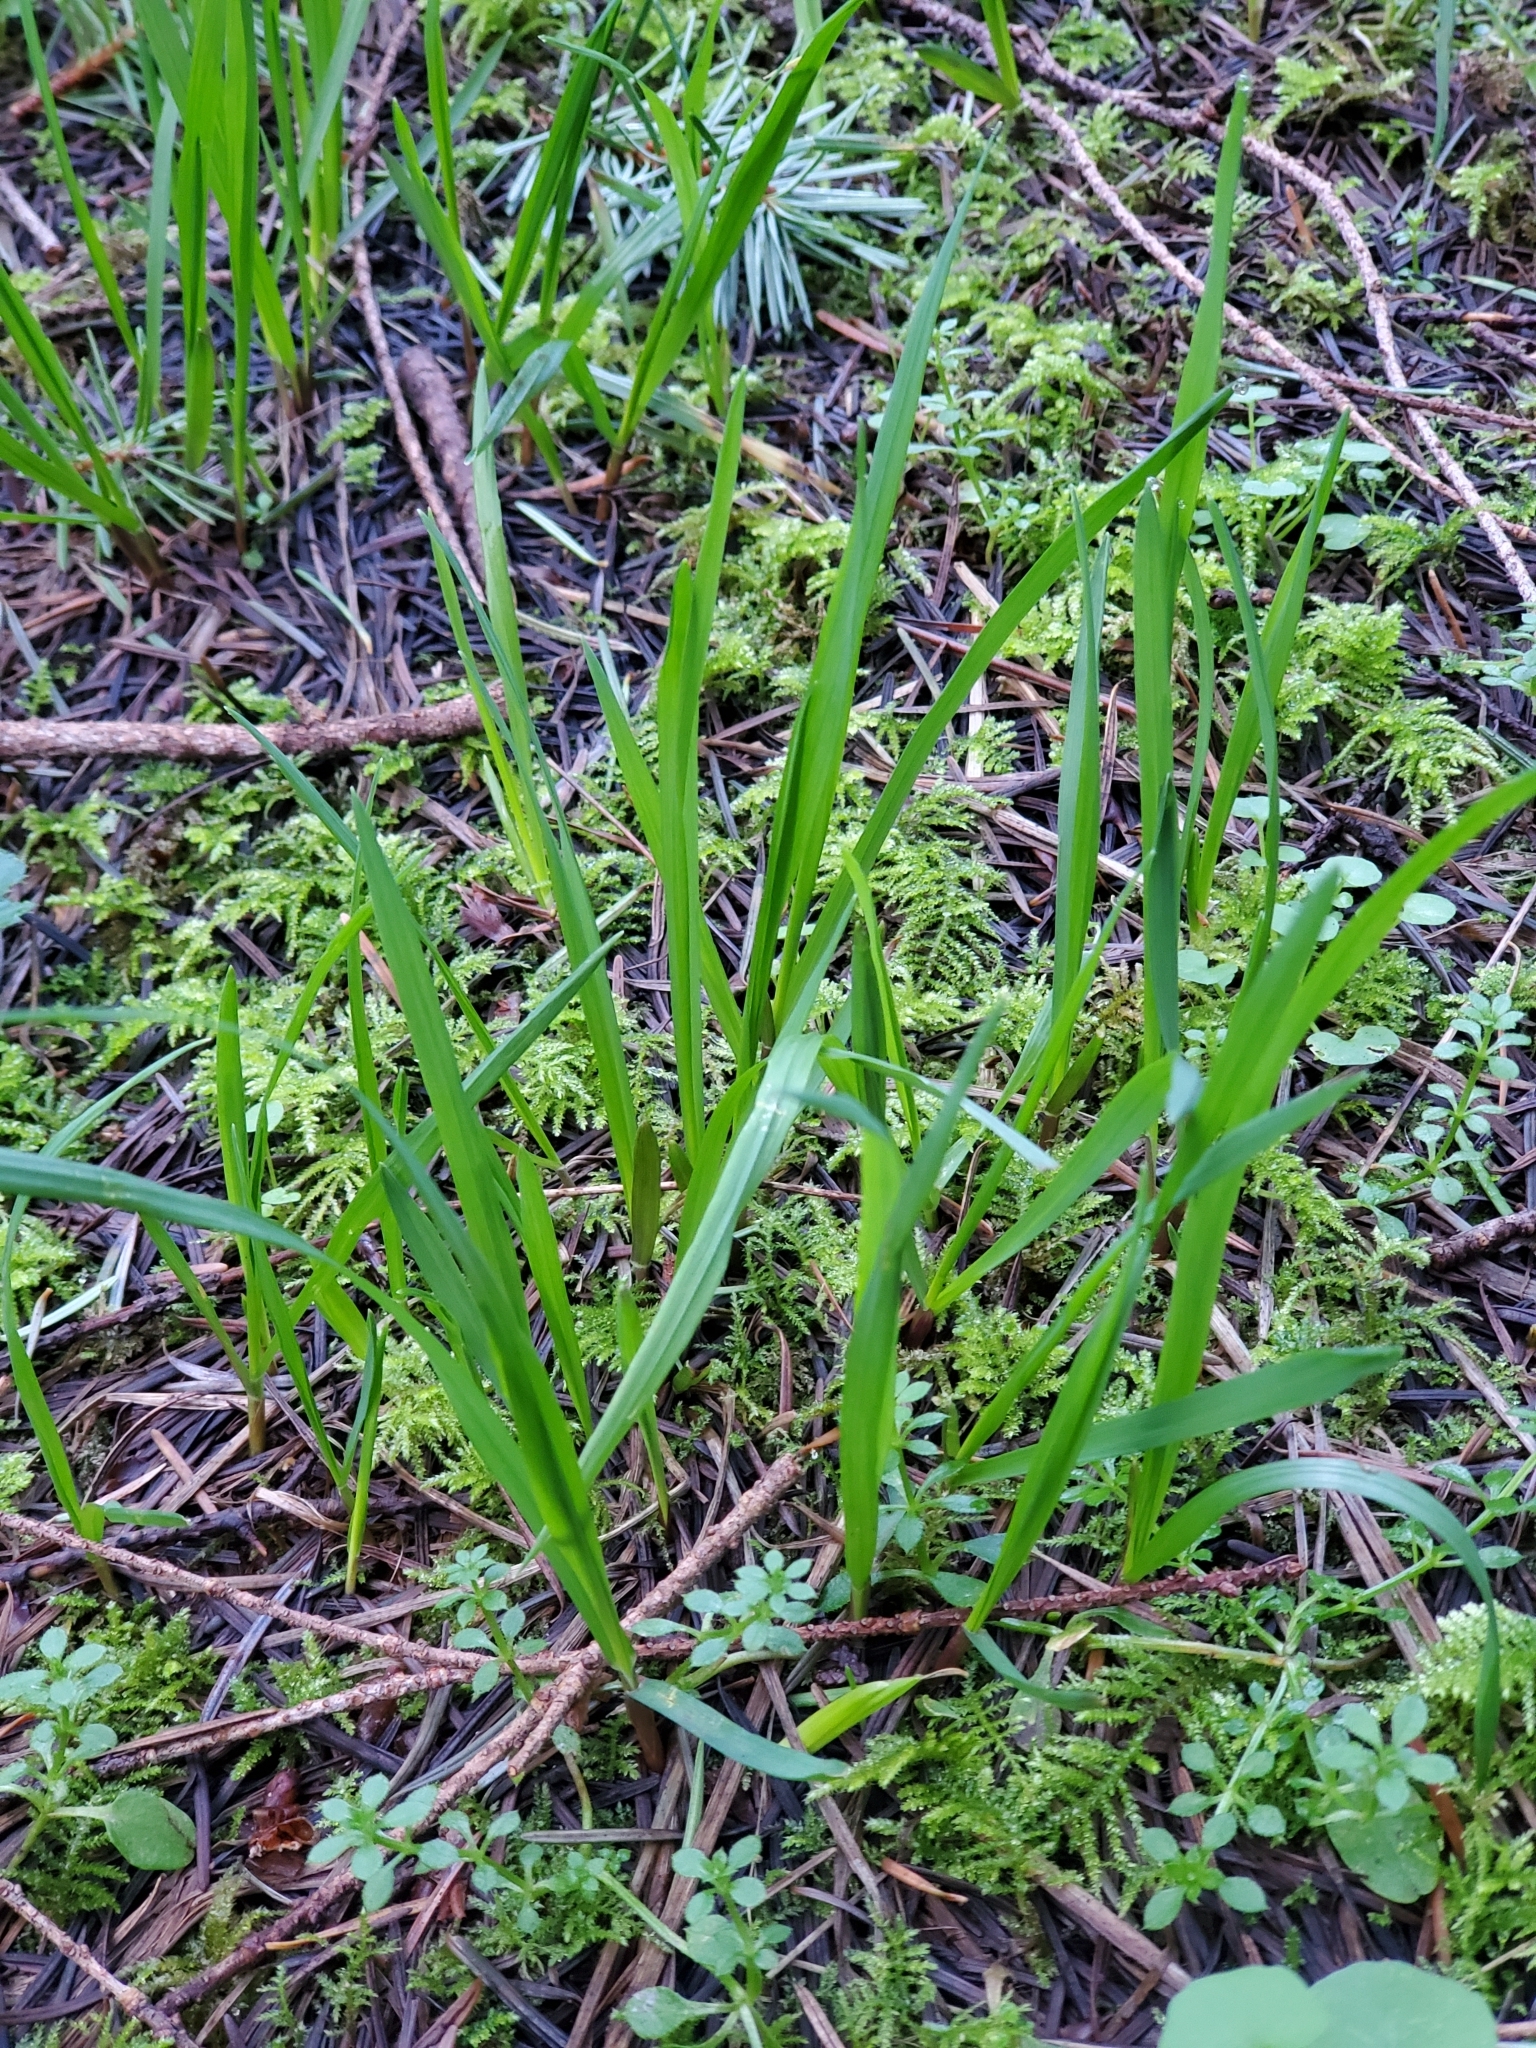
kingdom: Plantae
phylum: Tracheophyta
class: Liliopsida
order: Poales
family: Poaceae
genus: Melica
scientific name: Melica subulata
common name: Tapered oniongrass
